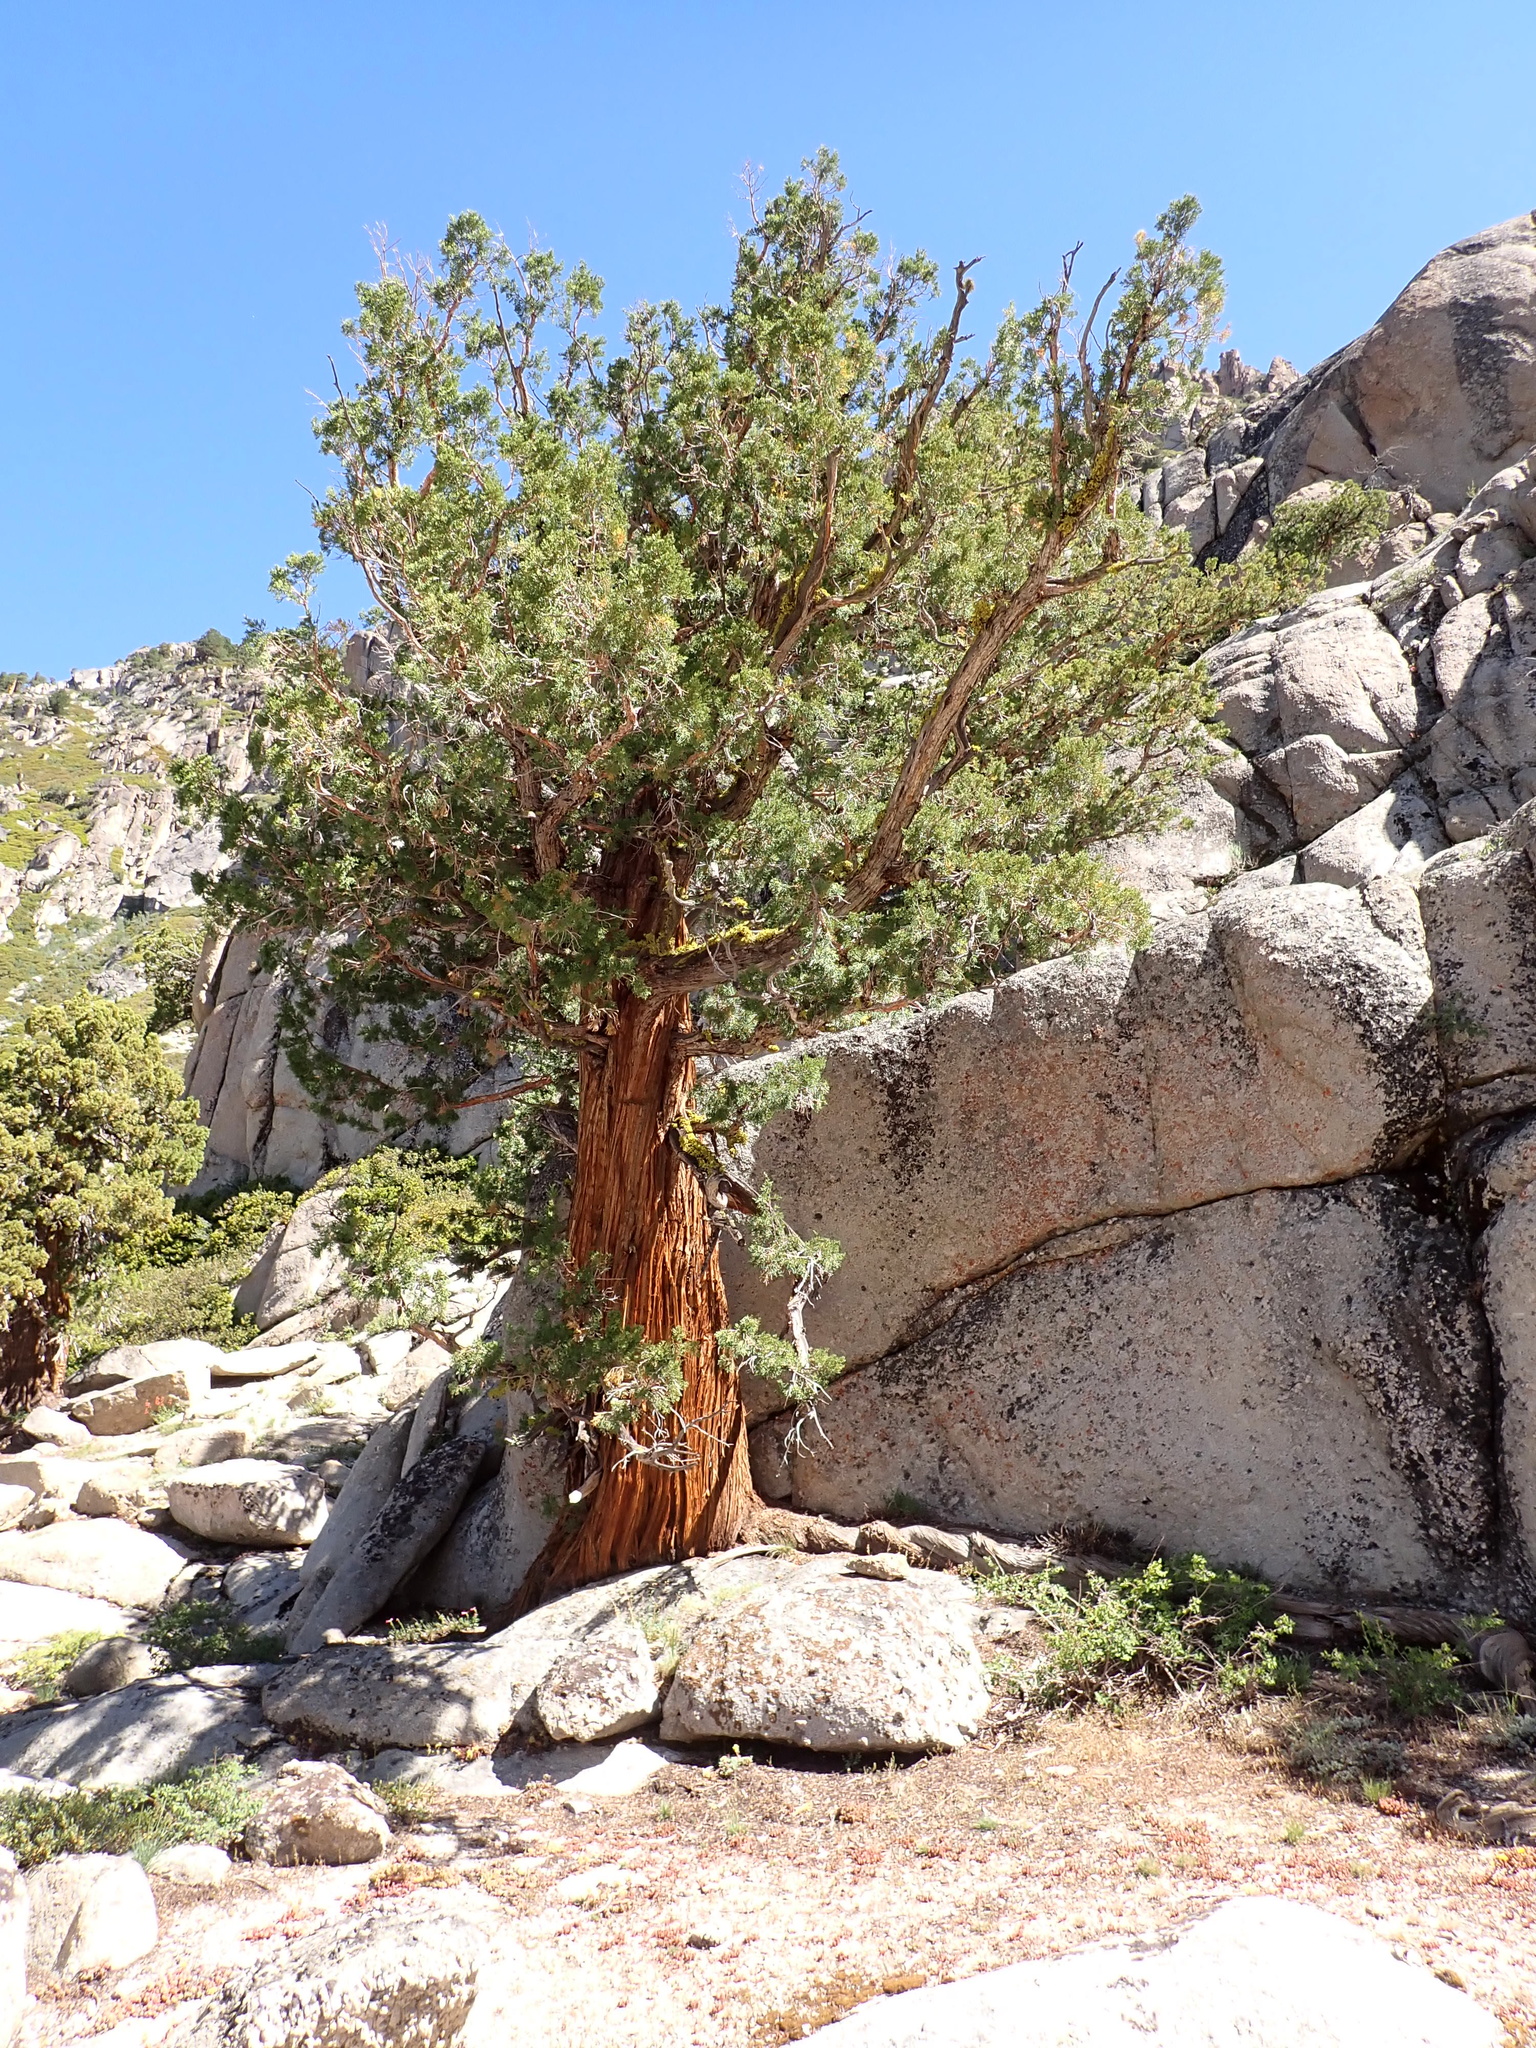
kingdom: Plantae
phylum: Tracheophyta
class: Pinopsida
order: Pinales
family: Cupressaceae
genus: Juniperus
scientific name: Juniperus occidentalis
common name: Western juniper
